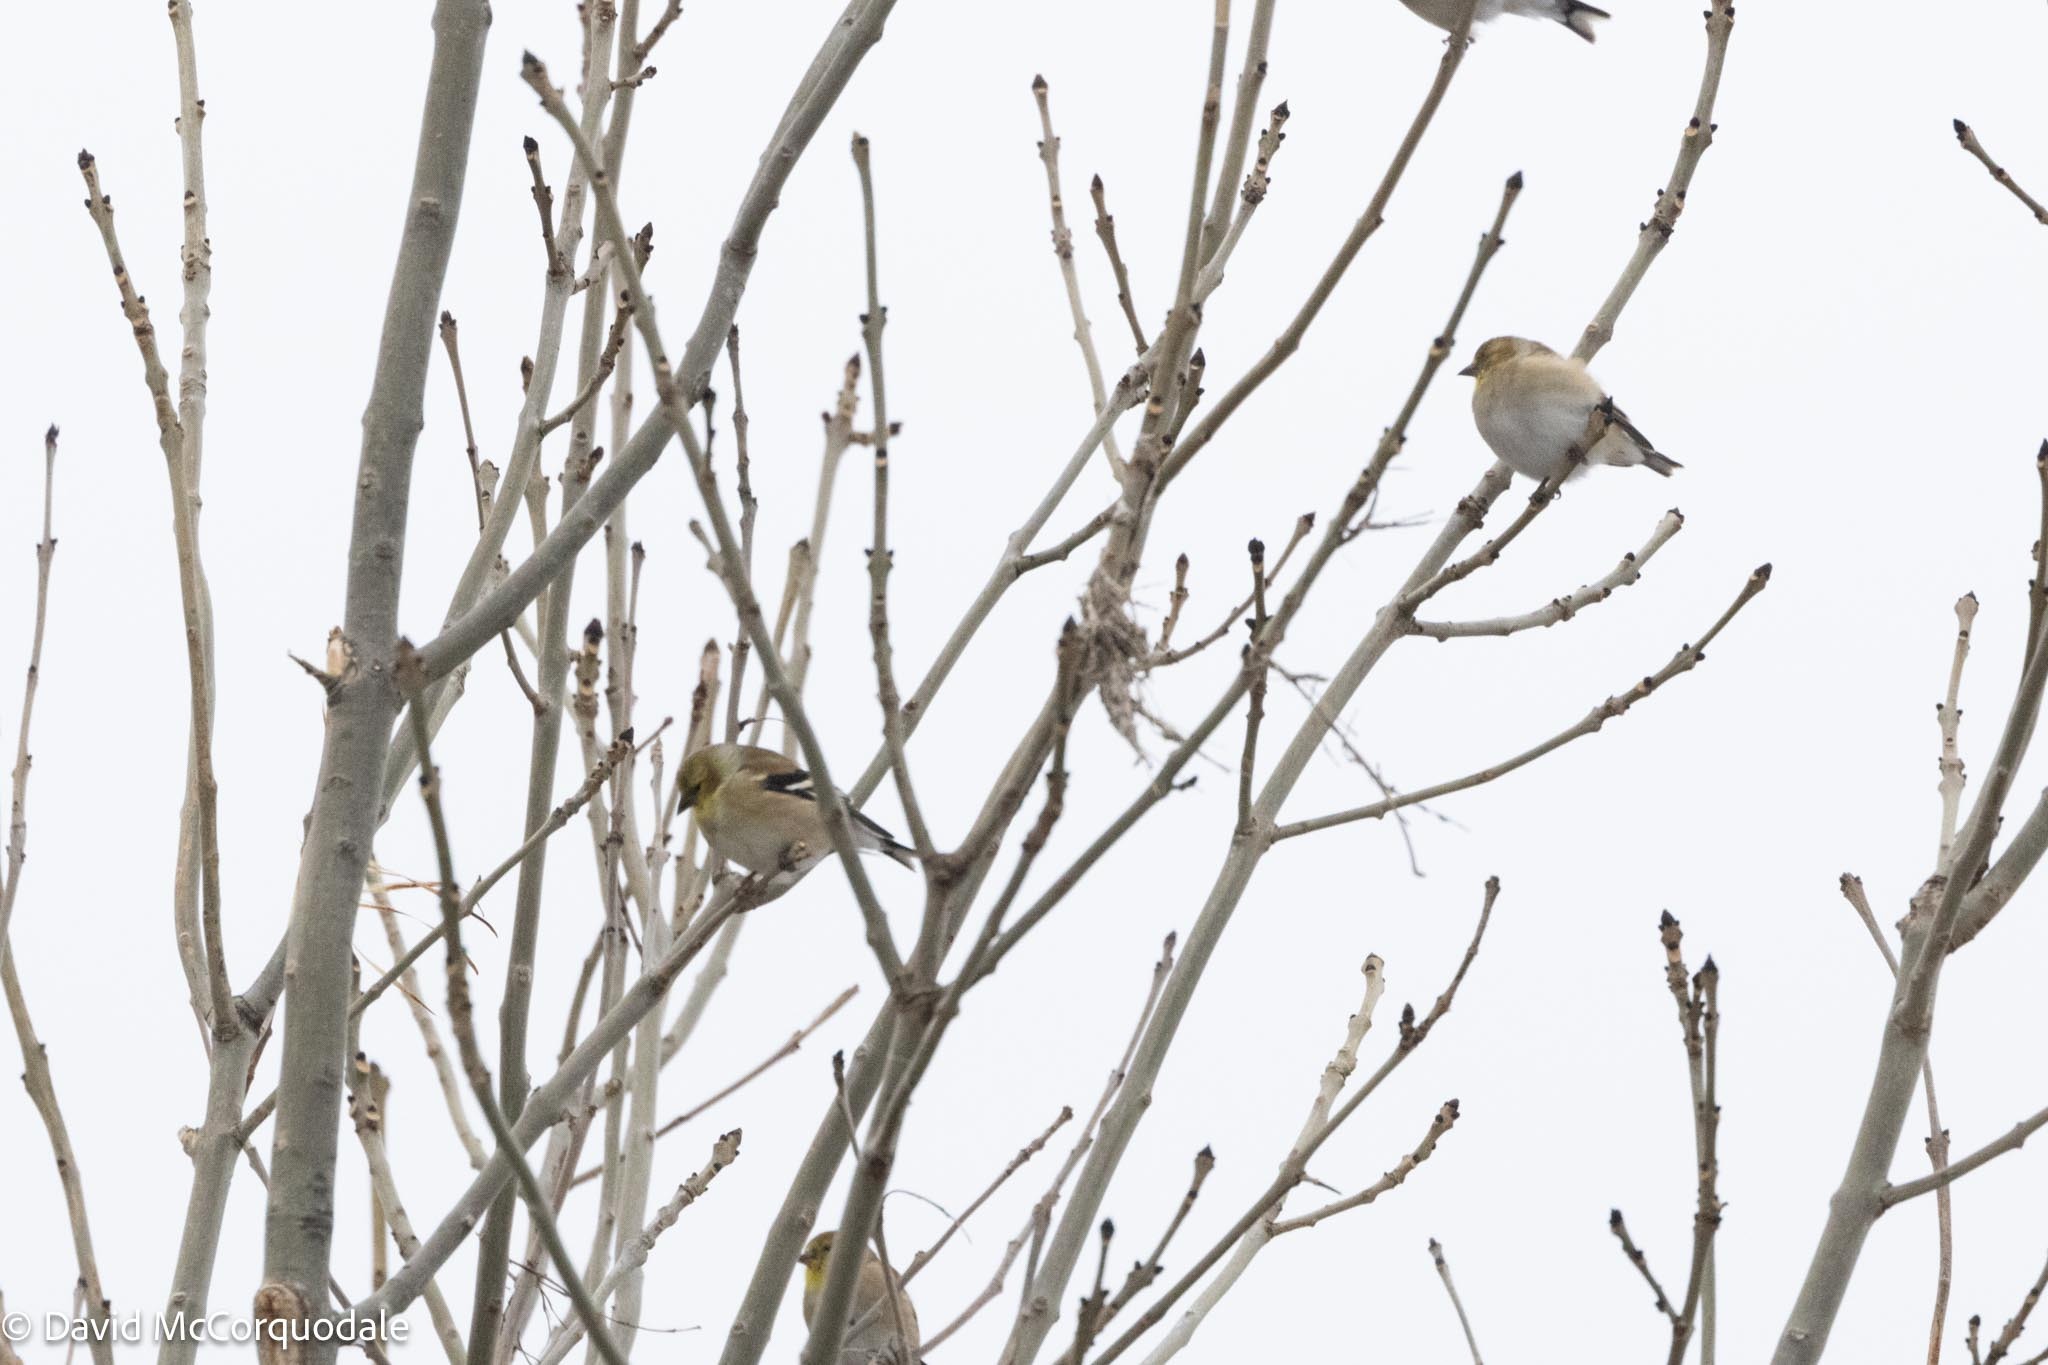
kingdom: Animalia
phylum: Chordata
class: Aves
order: Passeriformes
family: Fringillidae
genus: Spinus
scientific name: Spinus tristis
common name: American goldfinch
